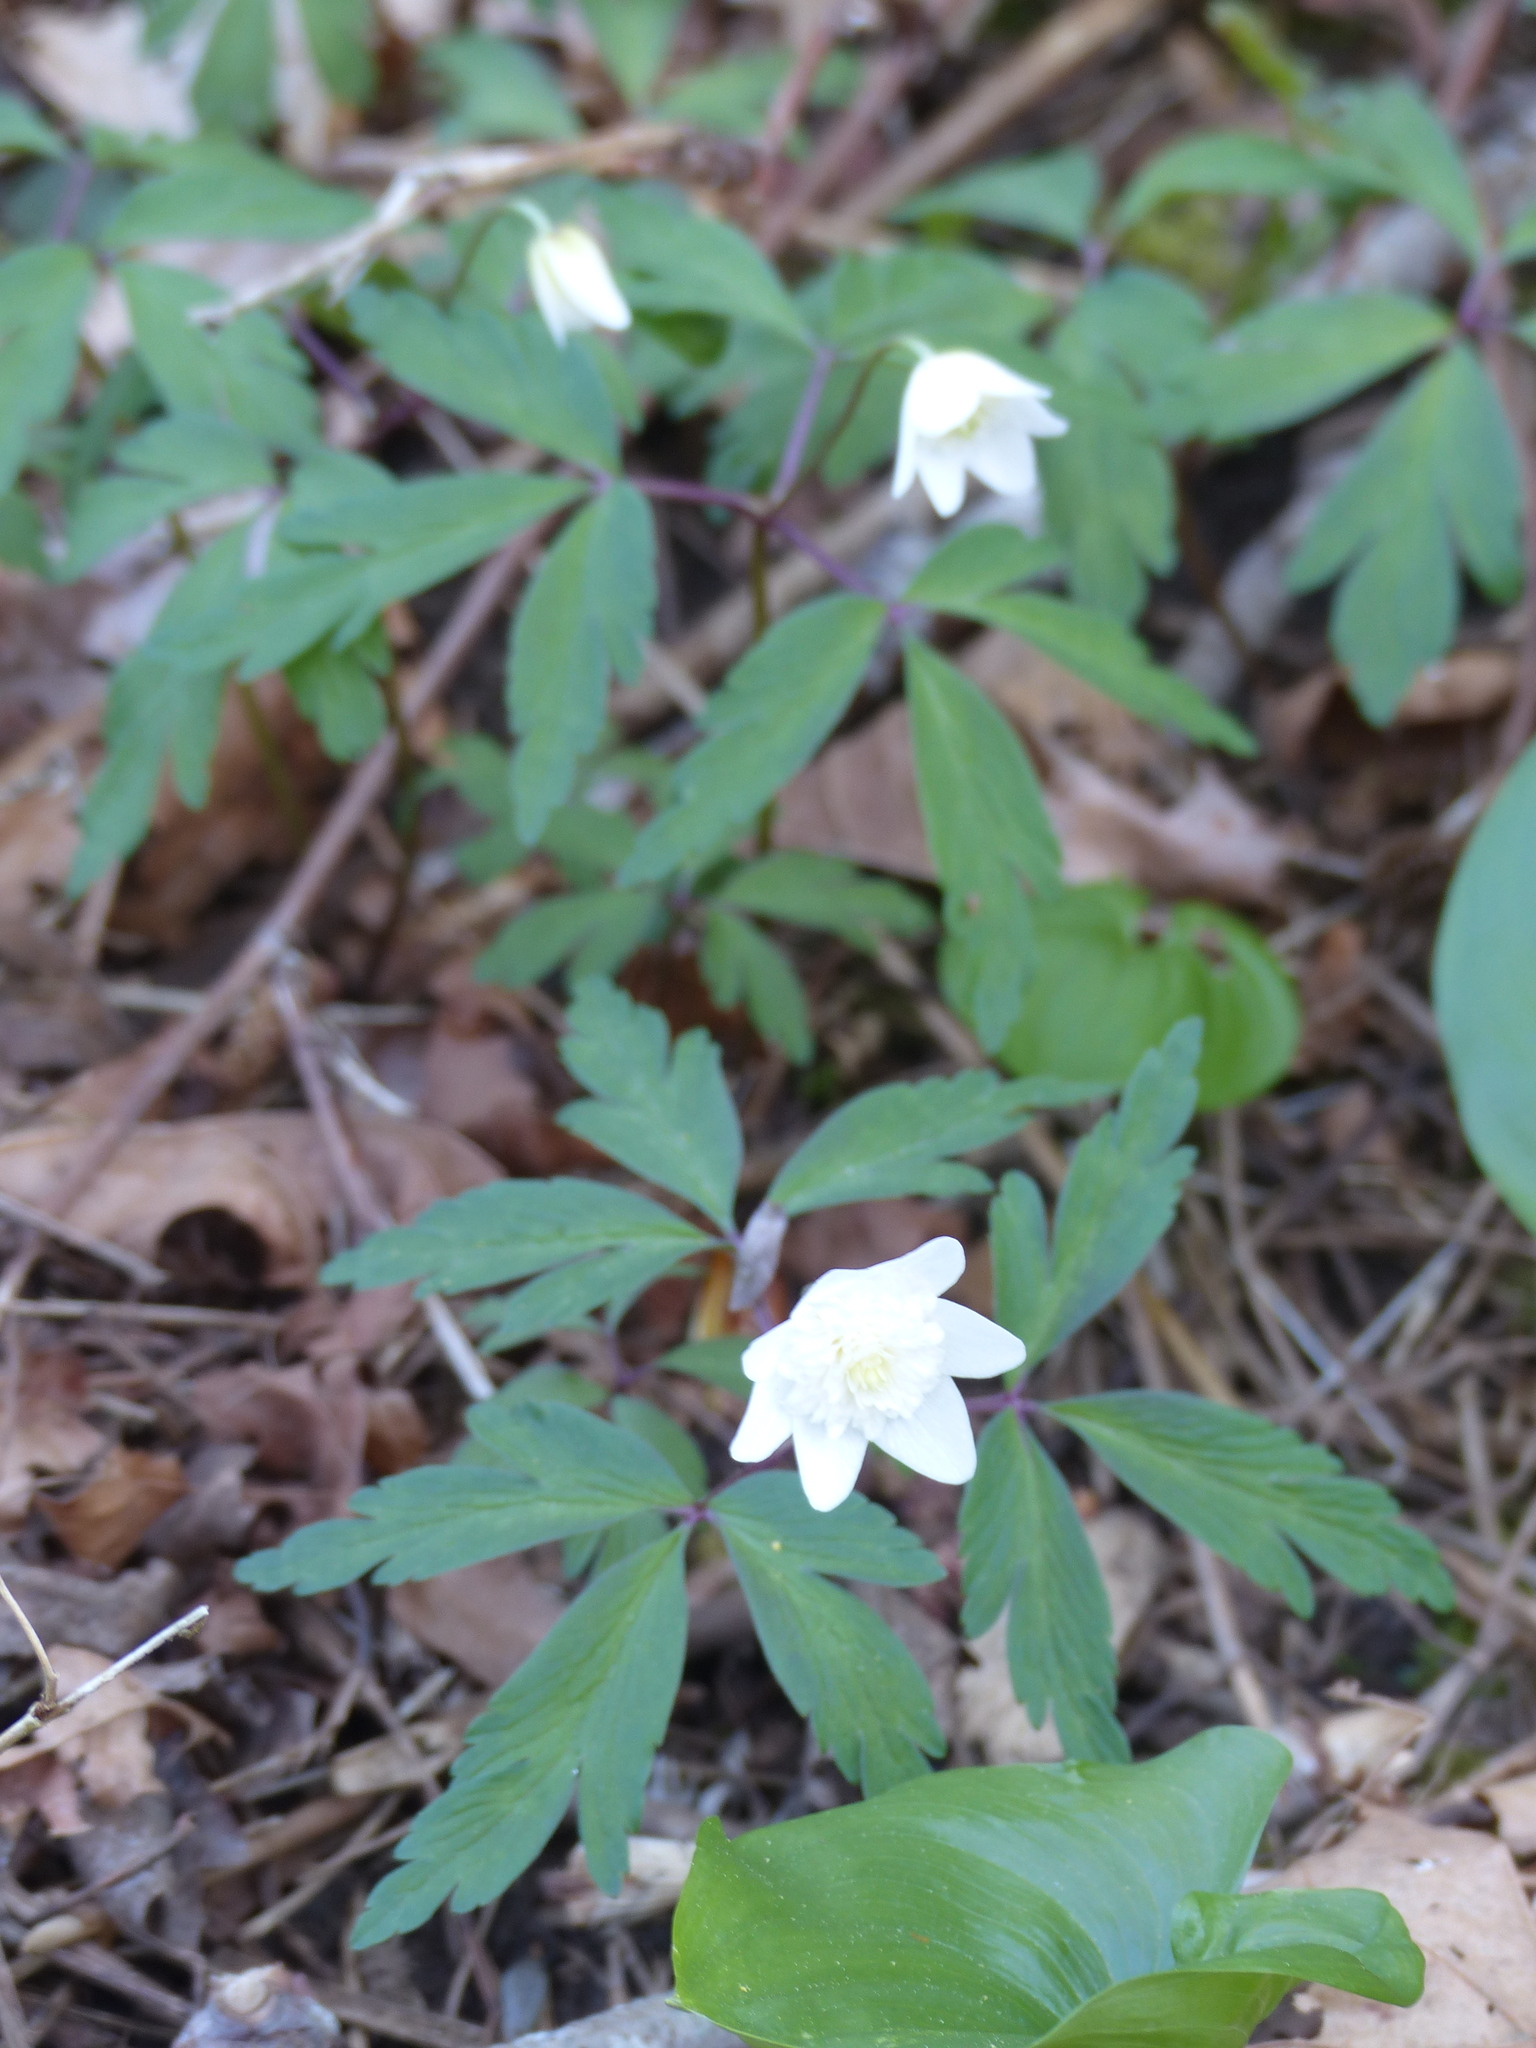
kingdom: Plantae
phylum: Tracheophyta
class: Magnoliopsida
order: Ranunculales
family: Ranunculaceae
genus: Anemone
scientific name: Anemone nemorosa
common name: Wood anemone
